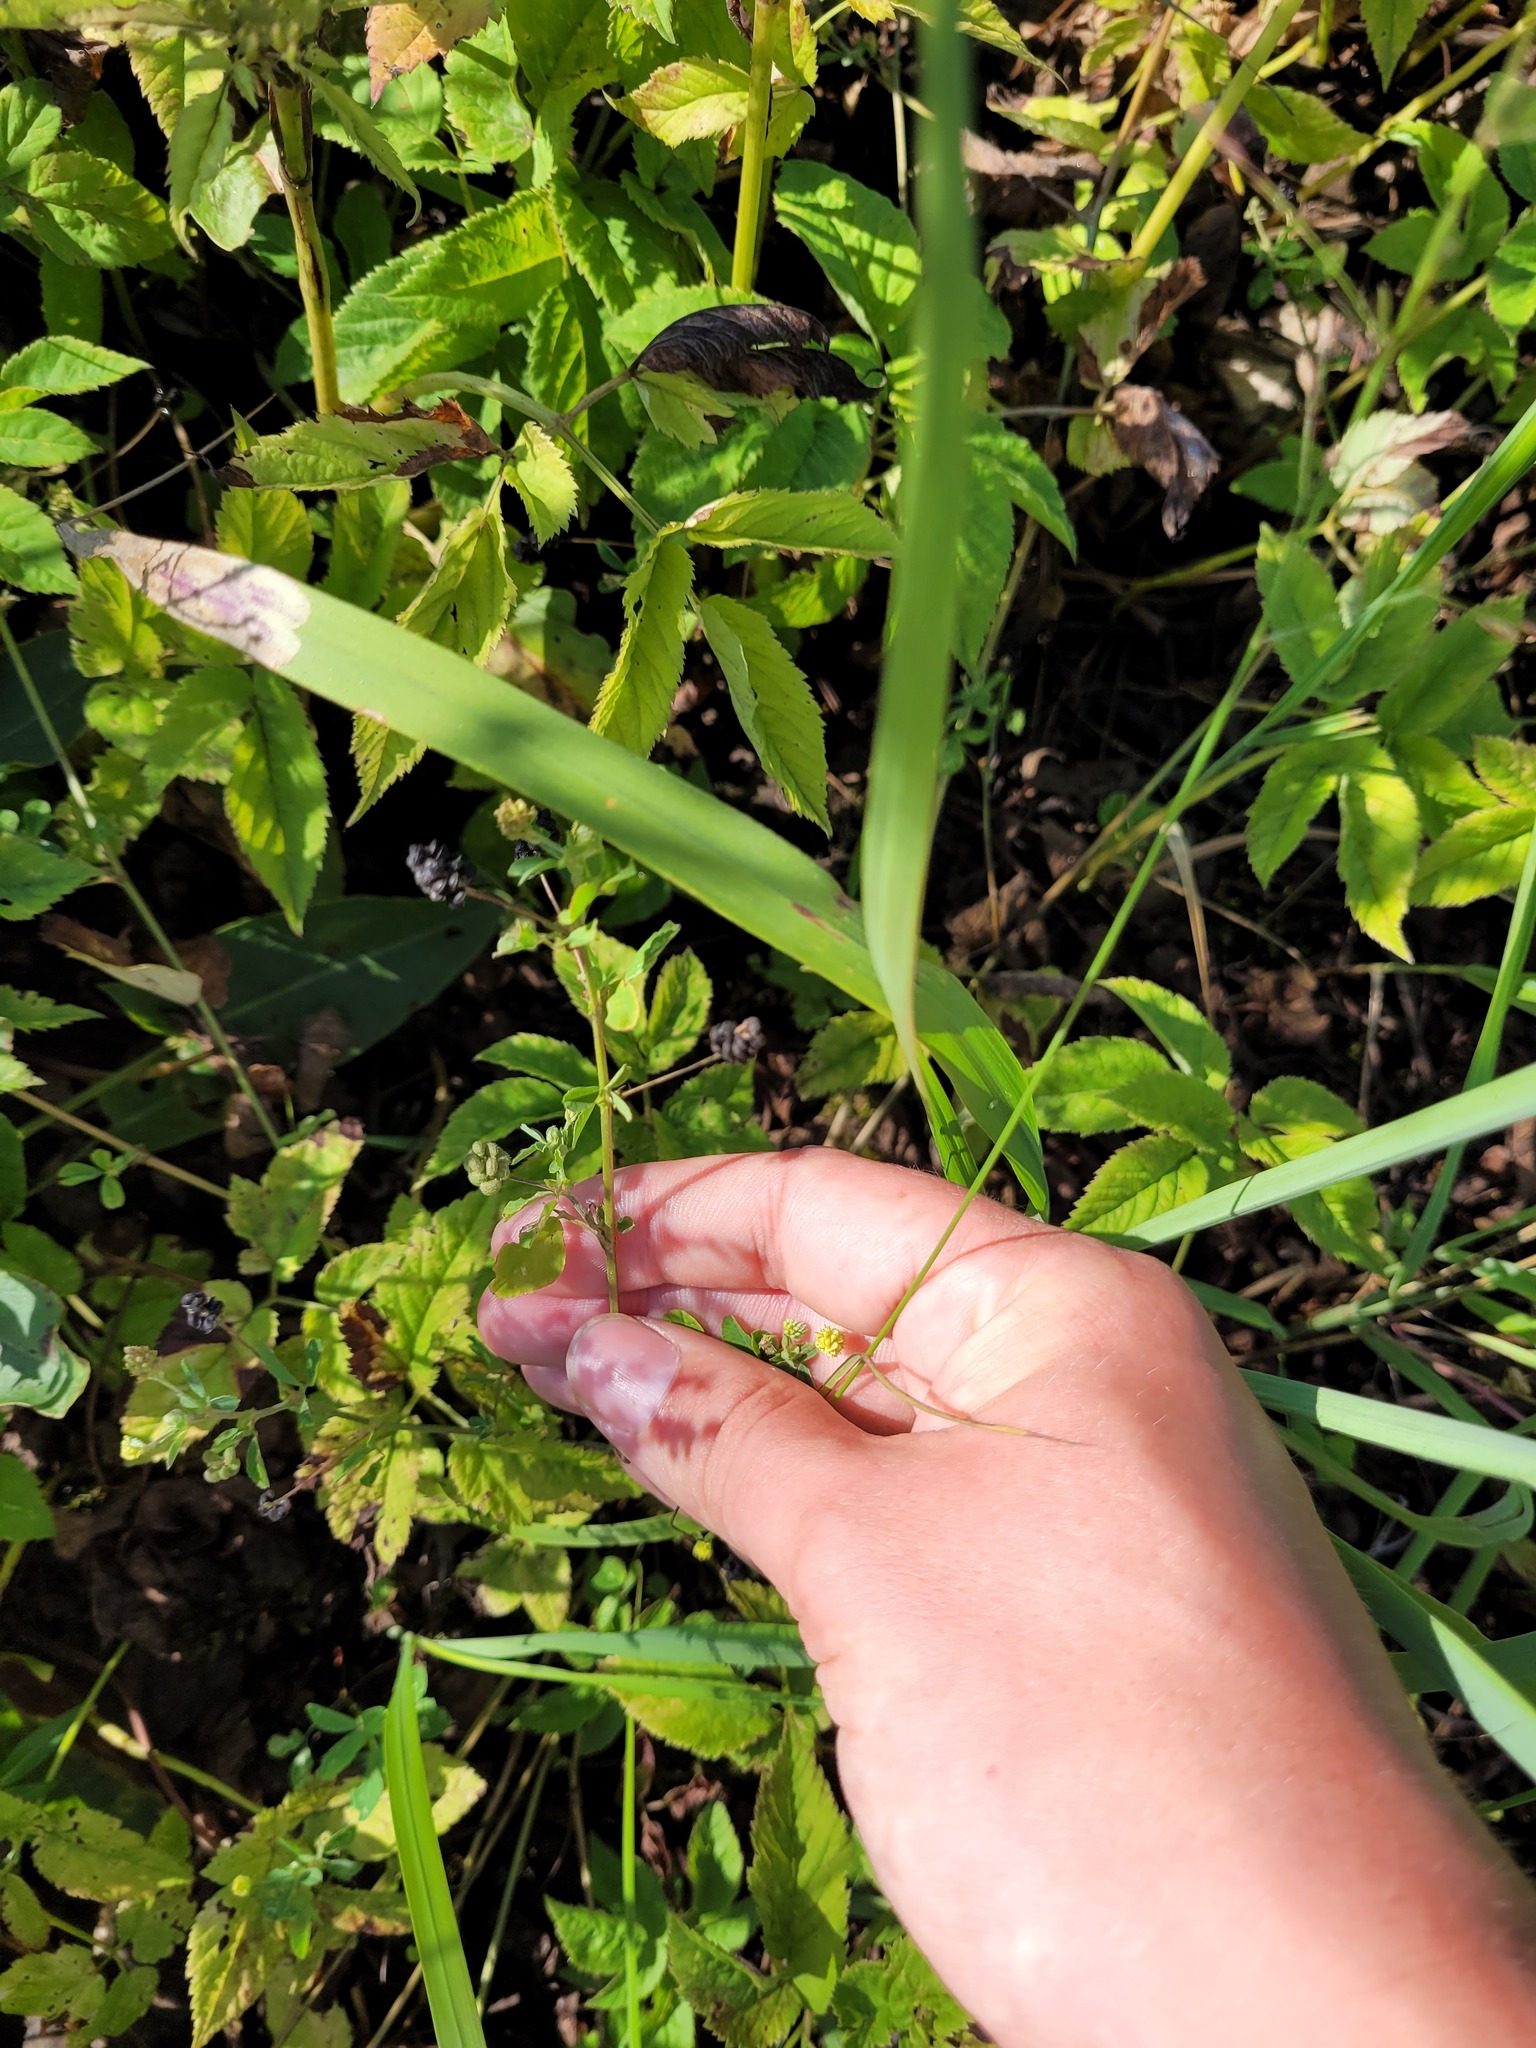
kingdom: Plantae
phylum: Tracheophyta
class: Magnoliopsida
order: Fabales
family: Fabaceae
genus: Medicago
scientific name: Medicago lupulina
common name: Black medick
